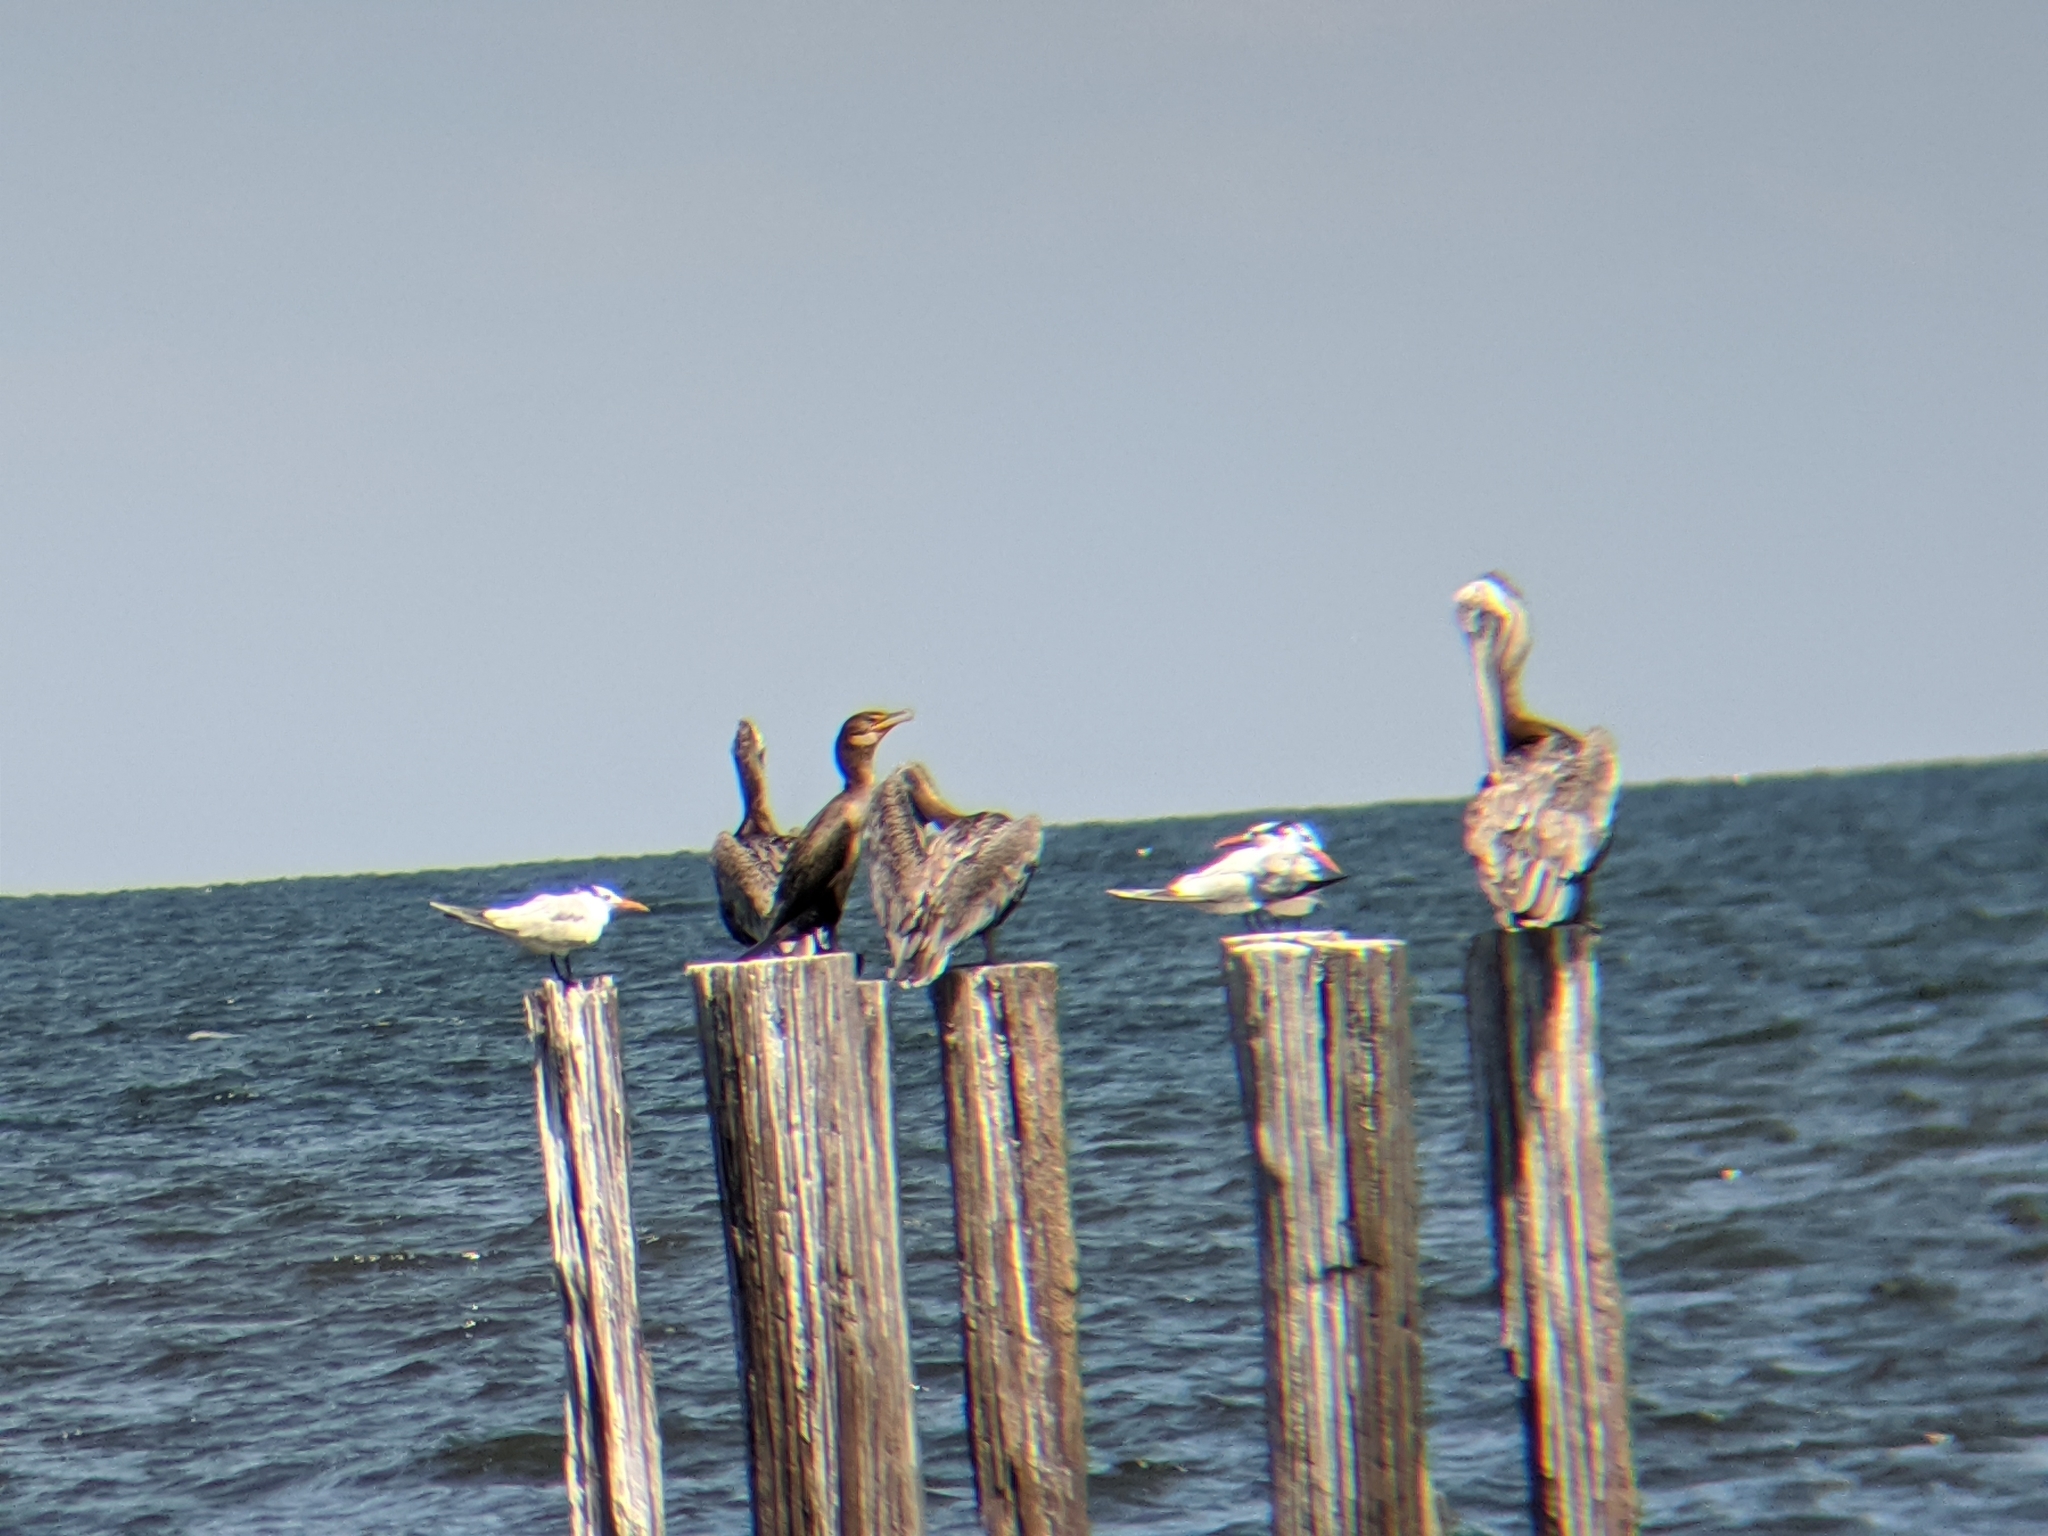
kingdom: Animalia
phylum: Chordata
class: Aves
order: Suliformes
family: Phalacrocoracidae
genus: Phalacrocorax
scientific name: Phalacrocorax auritus
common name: Double-crested cormorant
